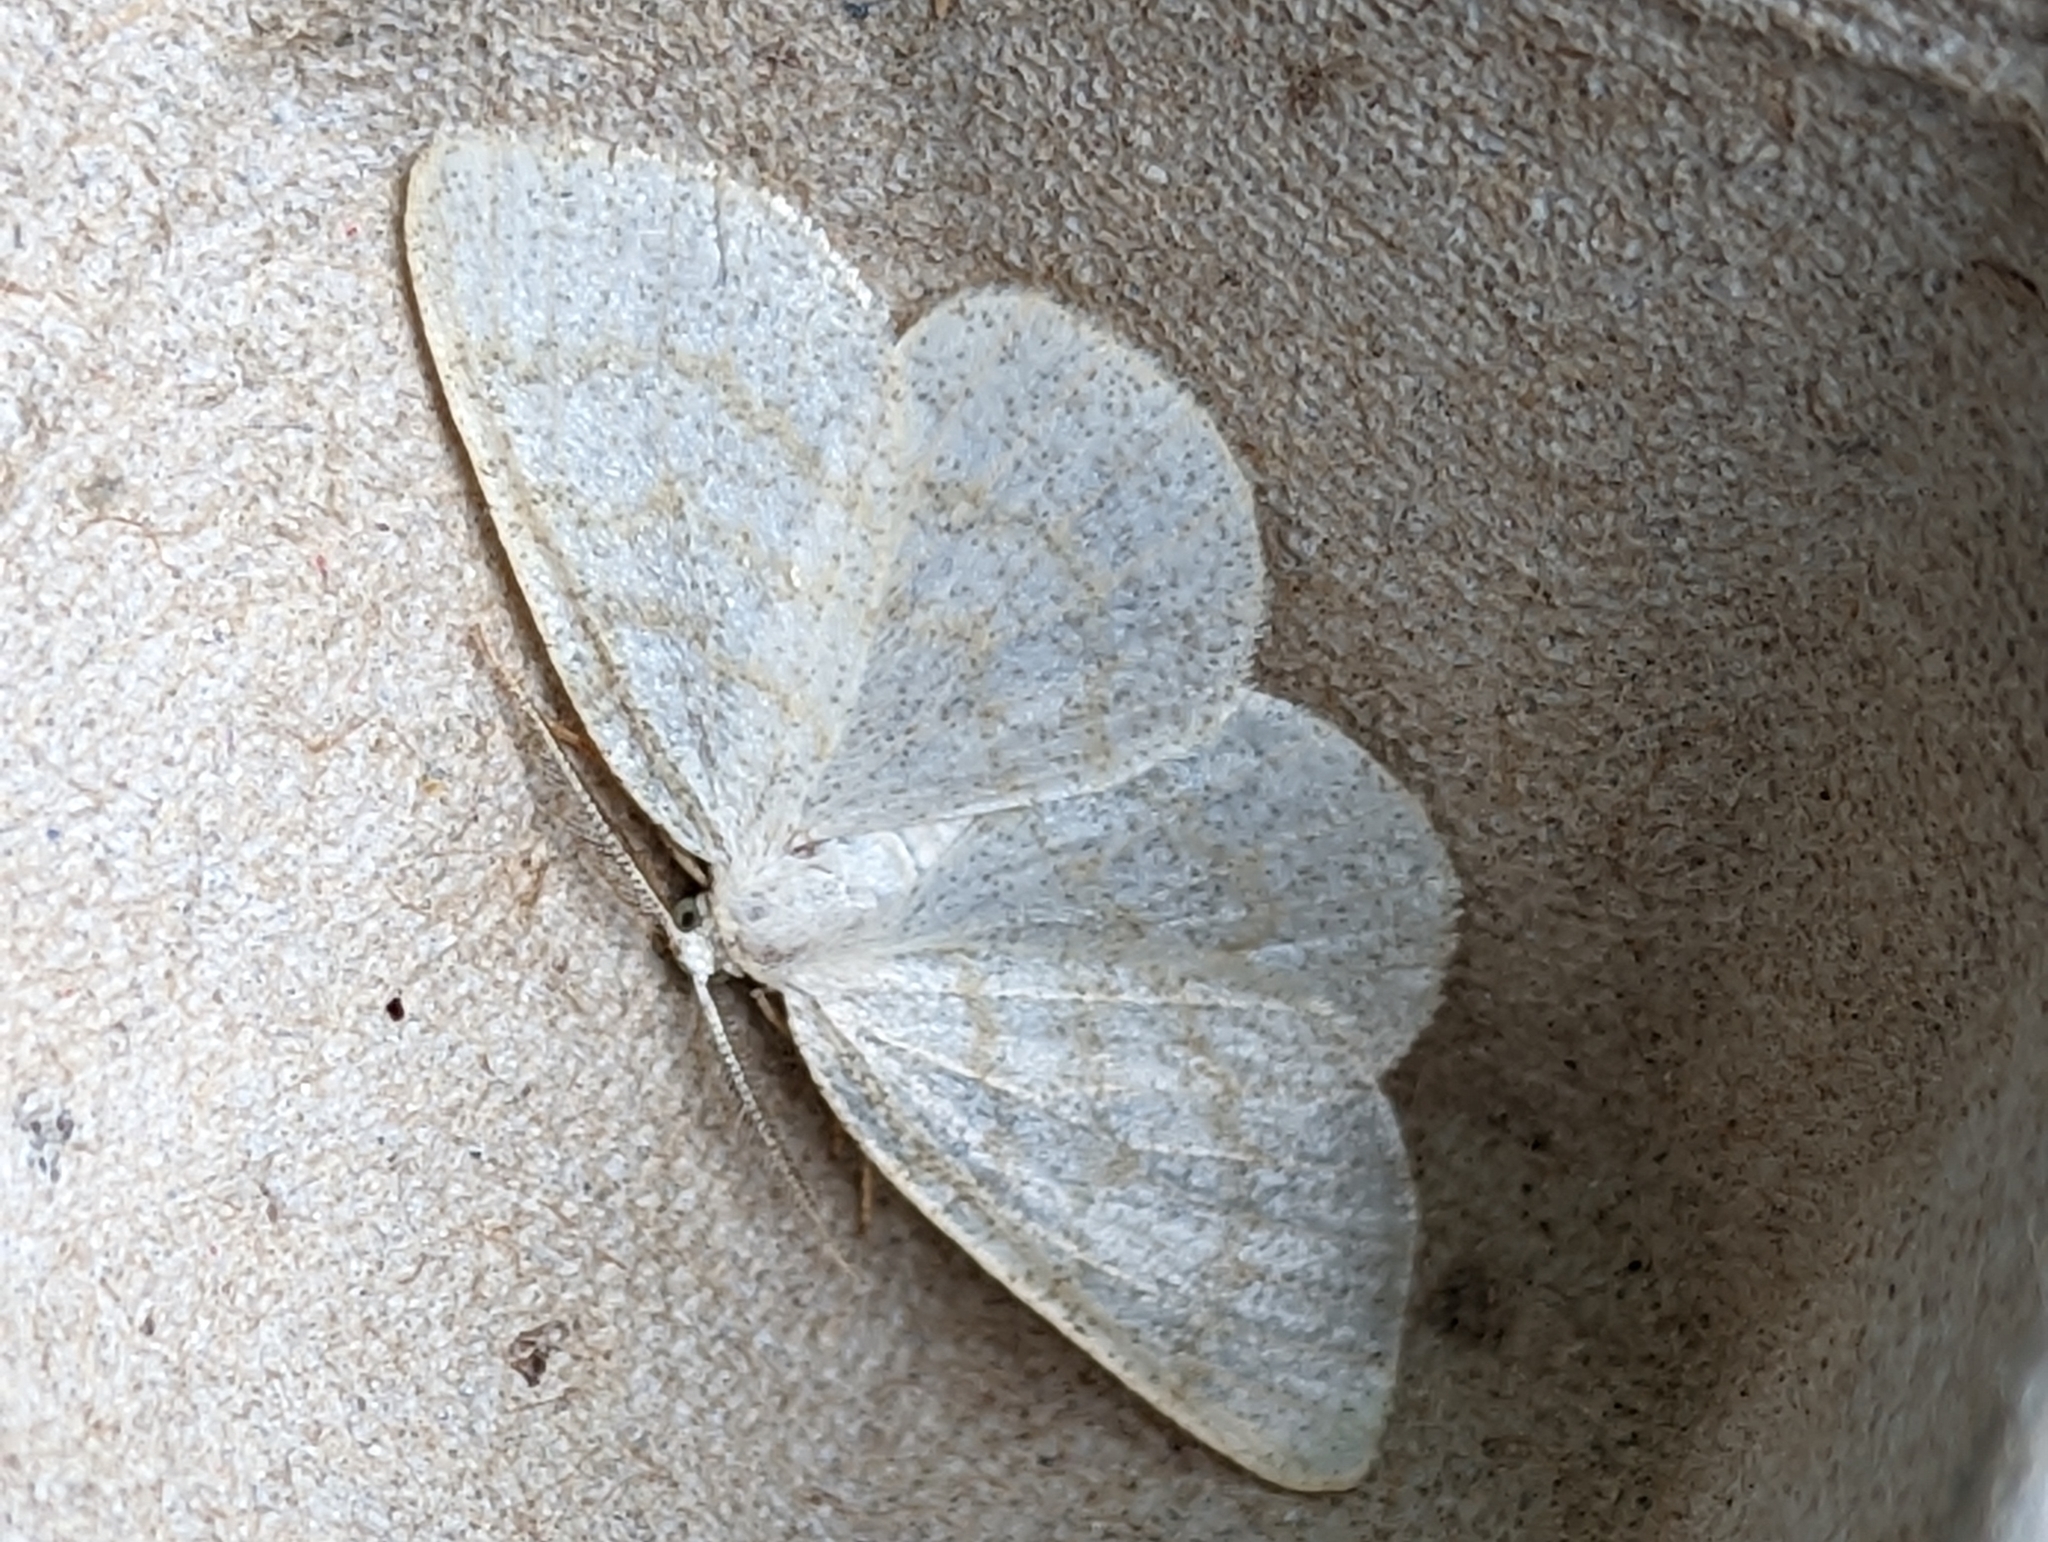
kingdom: Animalia
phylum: Arthropoda
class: Insecta
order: Lepidoptera
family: Geometridae
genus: Cabera
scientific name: Cabera exanthemata
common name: Common wave
